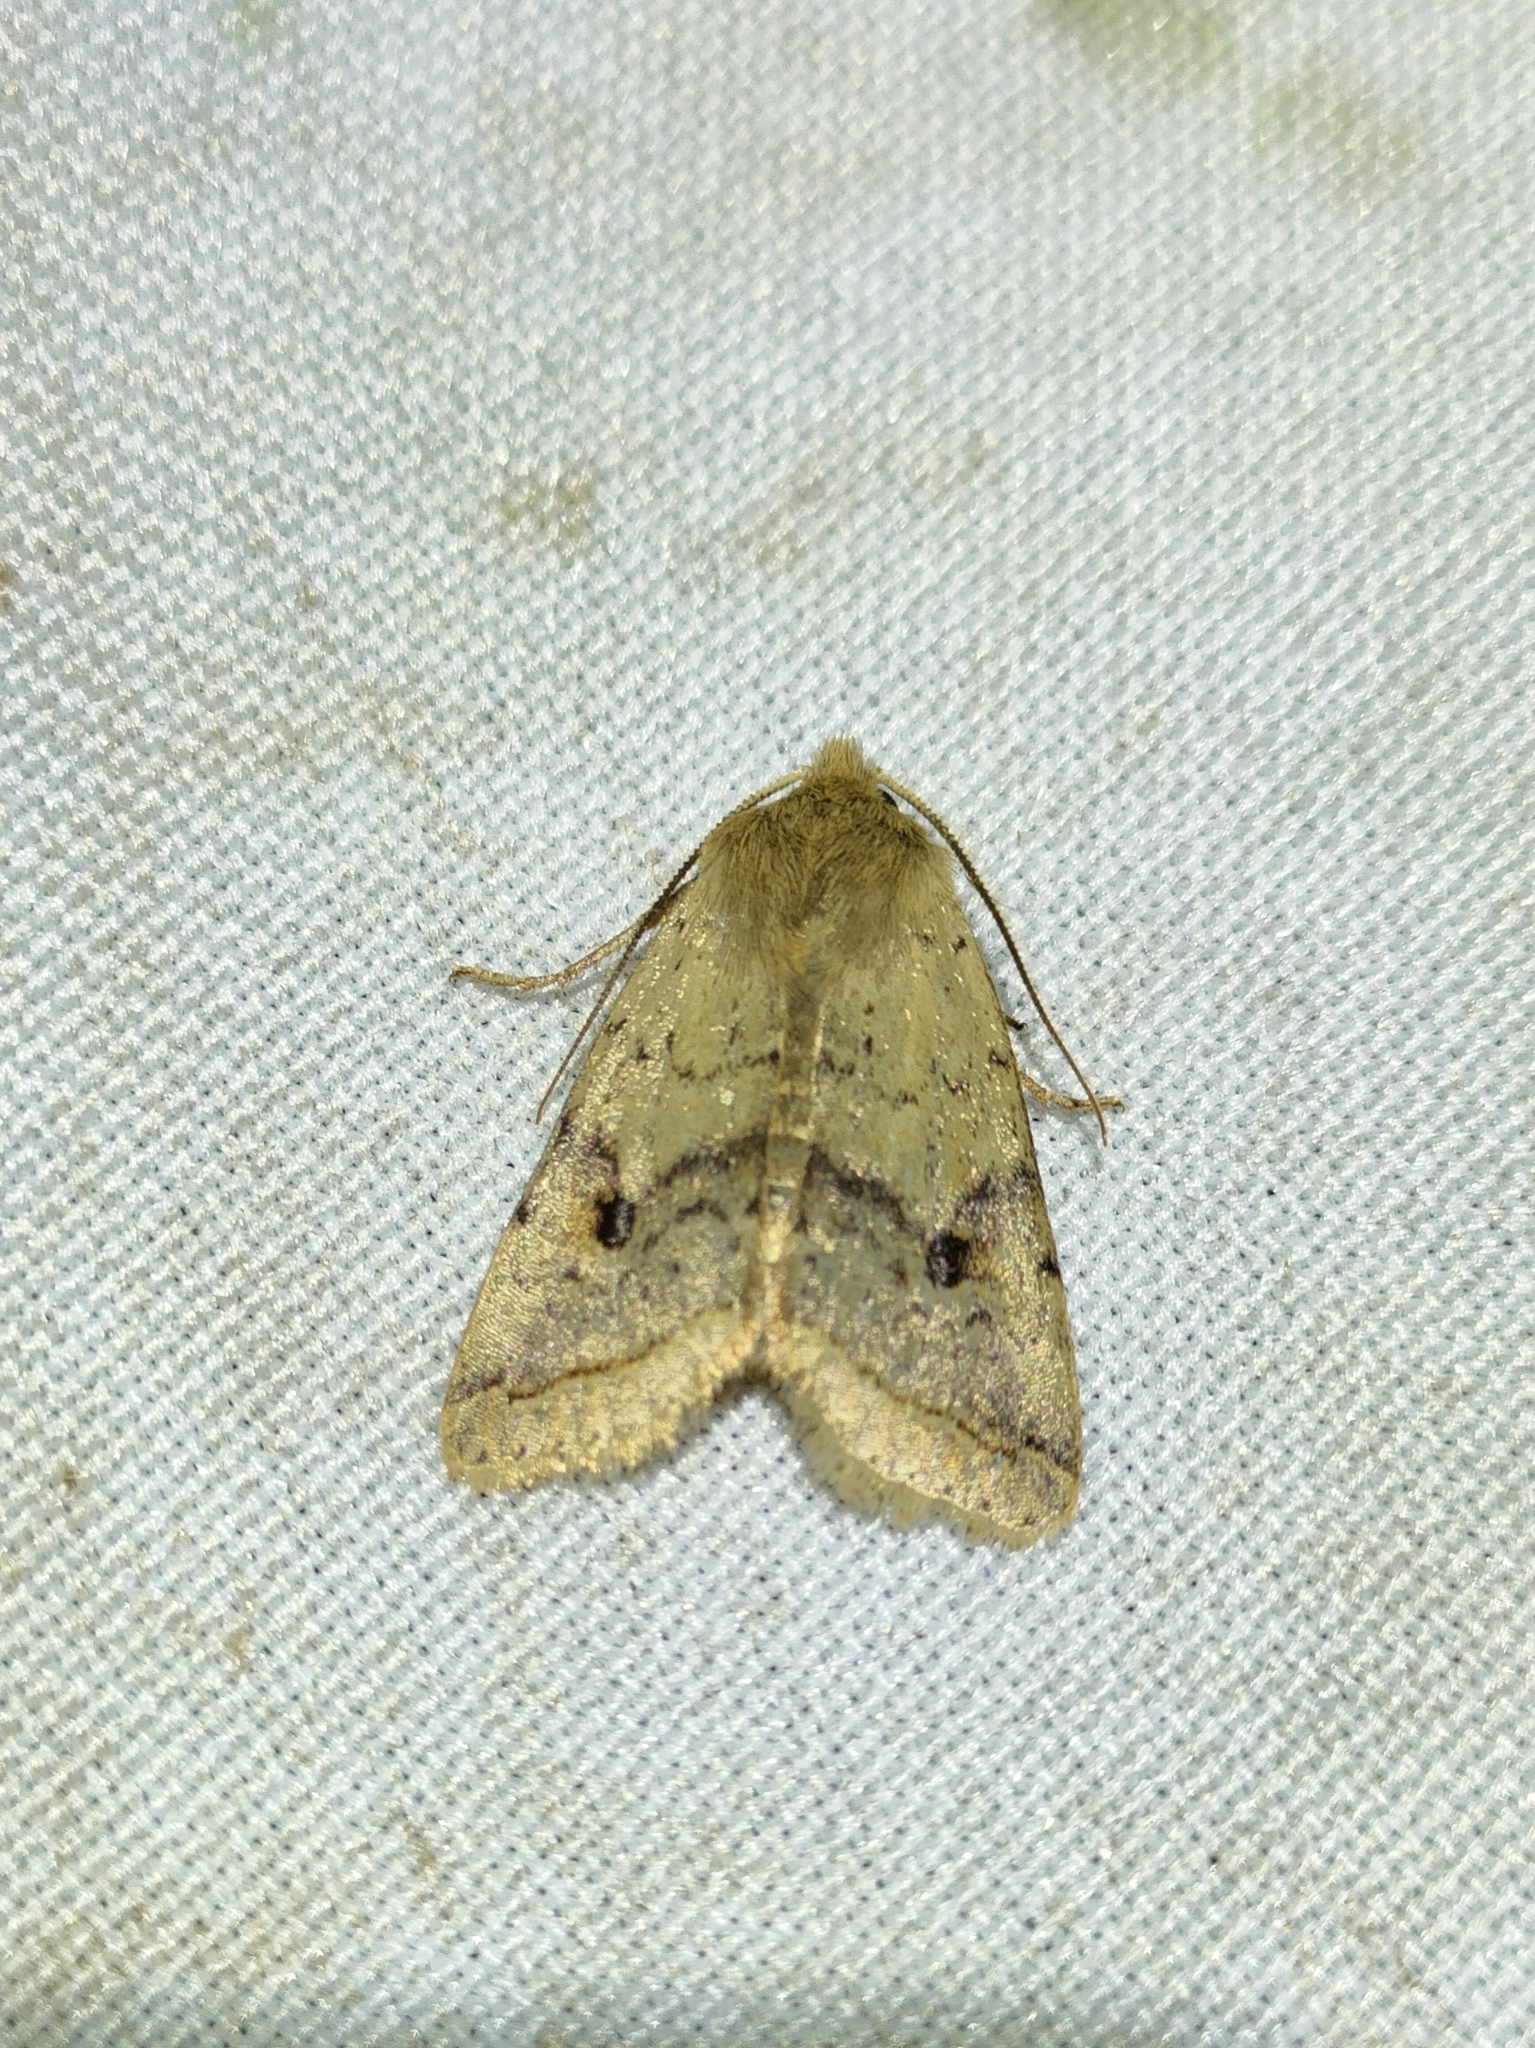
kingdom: Animalia
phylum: Arthropoda
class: Insecta
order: Lepidoptera
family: Noctuidae
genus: Agrochola
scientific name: Agrochola blidaensis
